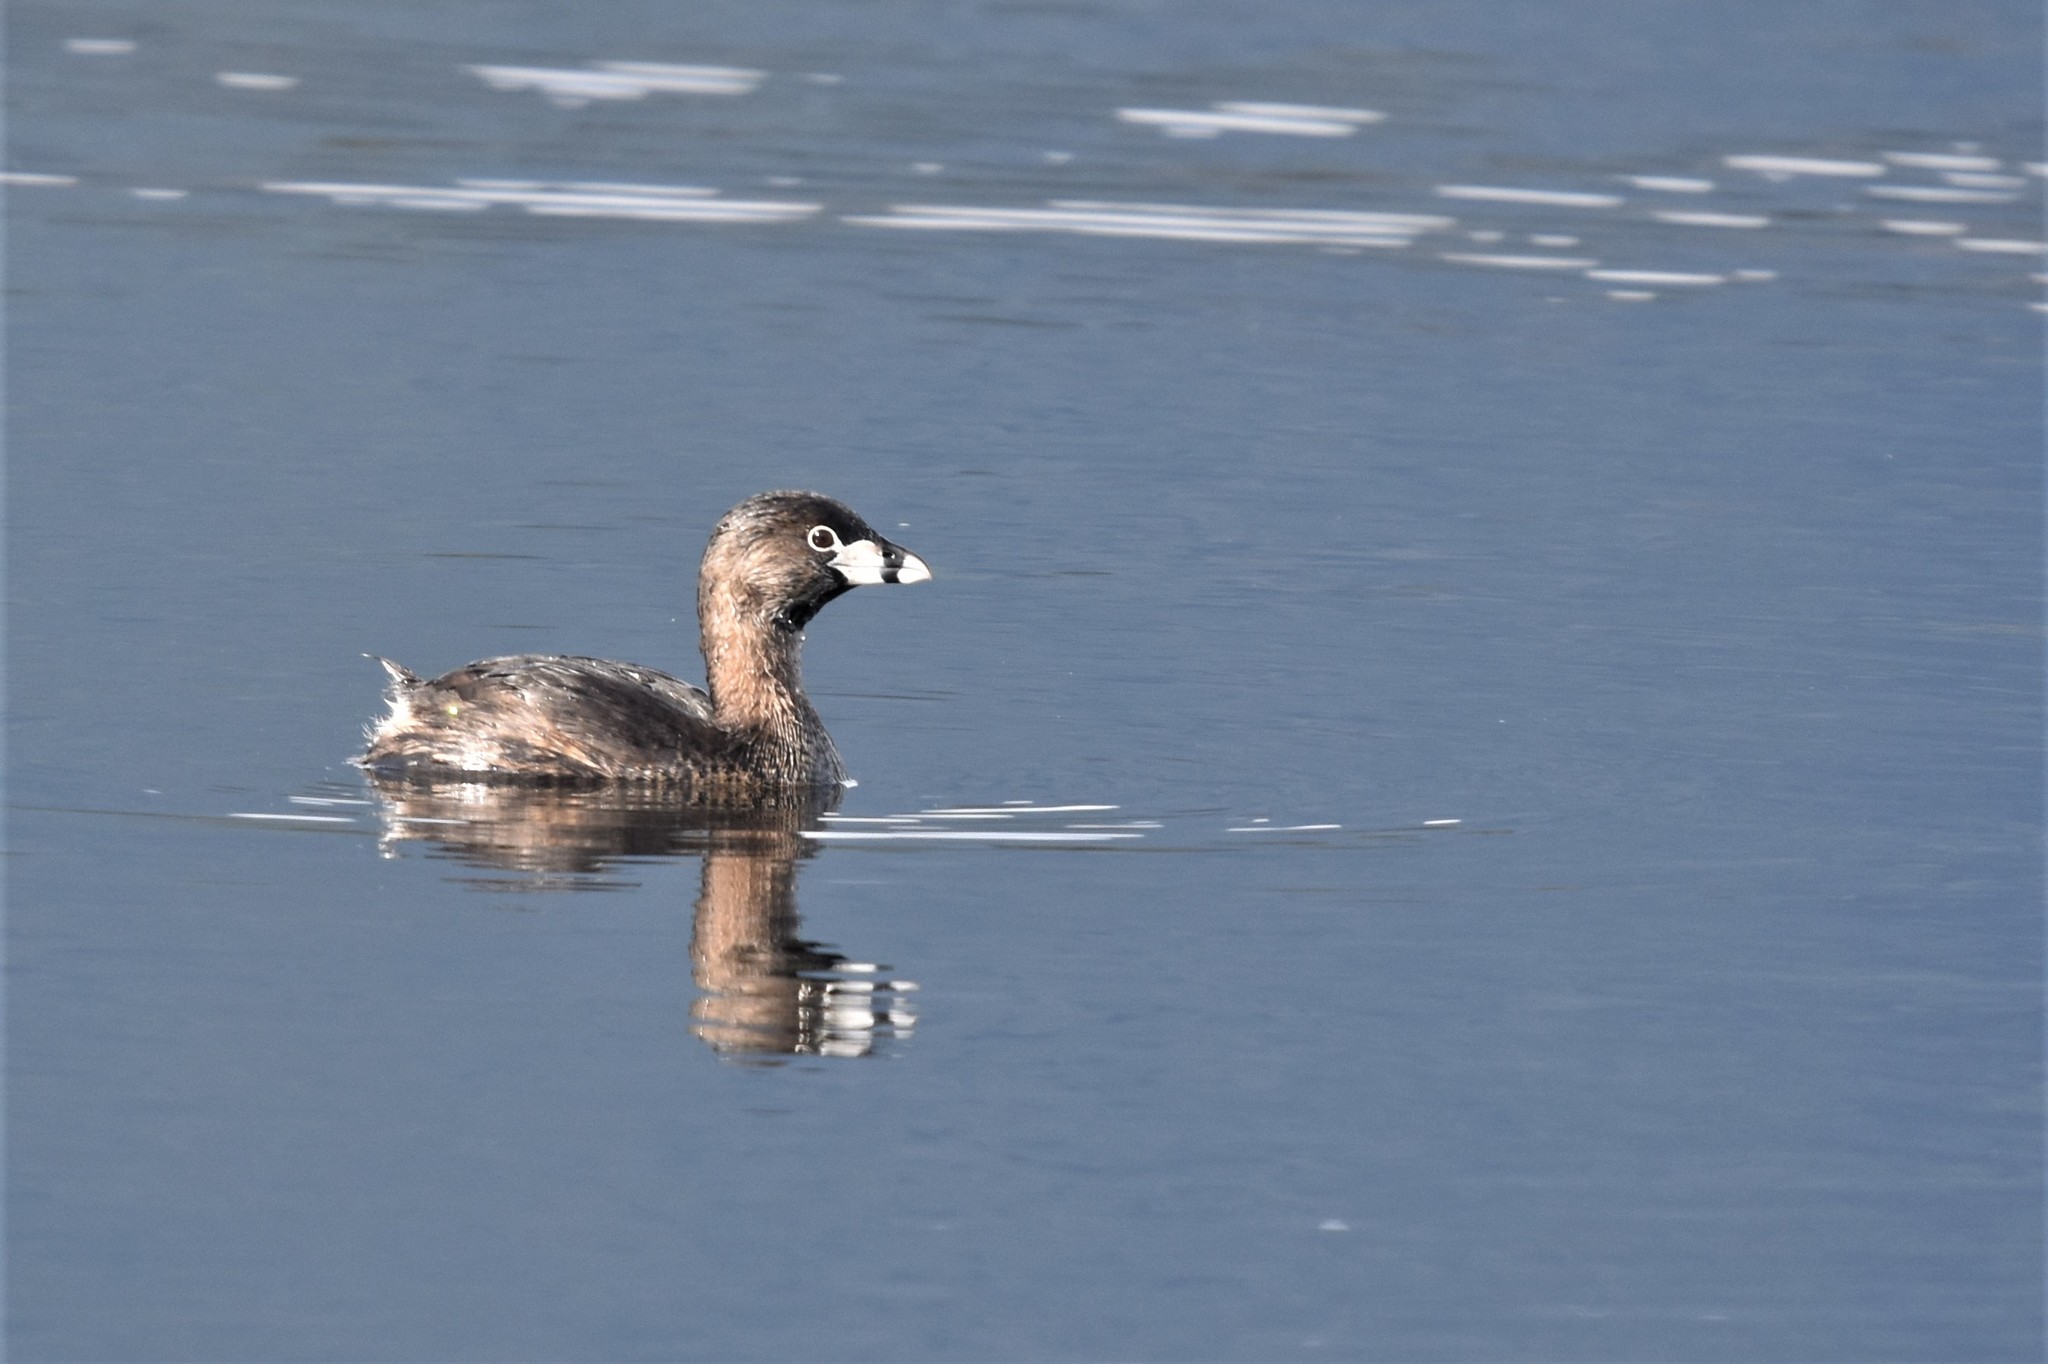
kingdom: Animalia
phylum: Chordata
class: Aves
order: Podicipediformes
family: Podicipedidae
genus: Podilymbus
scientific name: Podilymbus podiceps
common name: Pied-billed grebe
